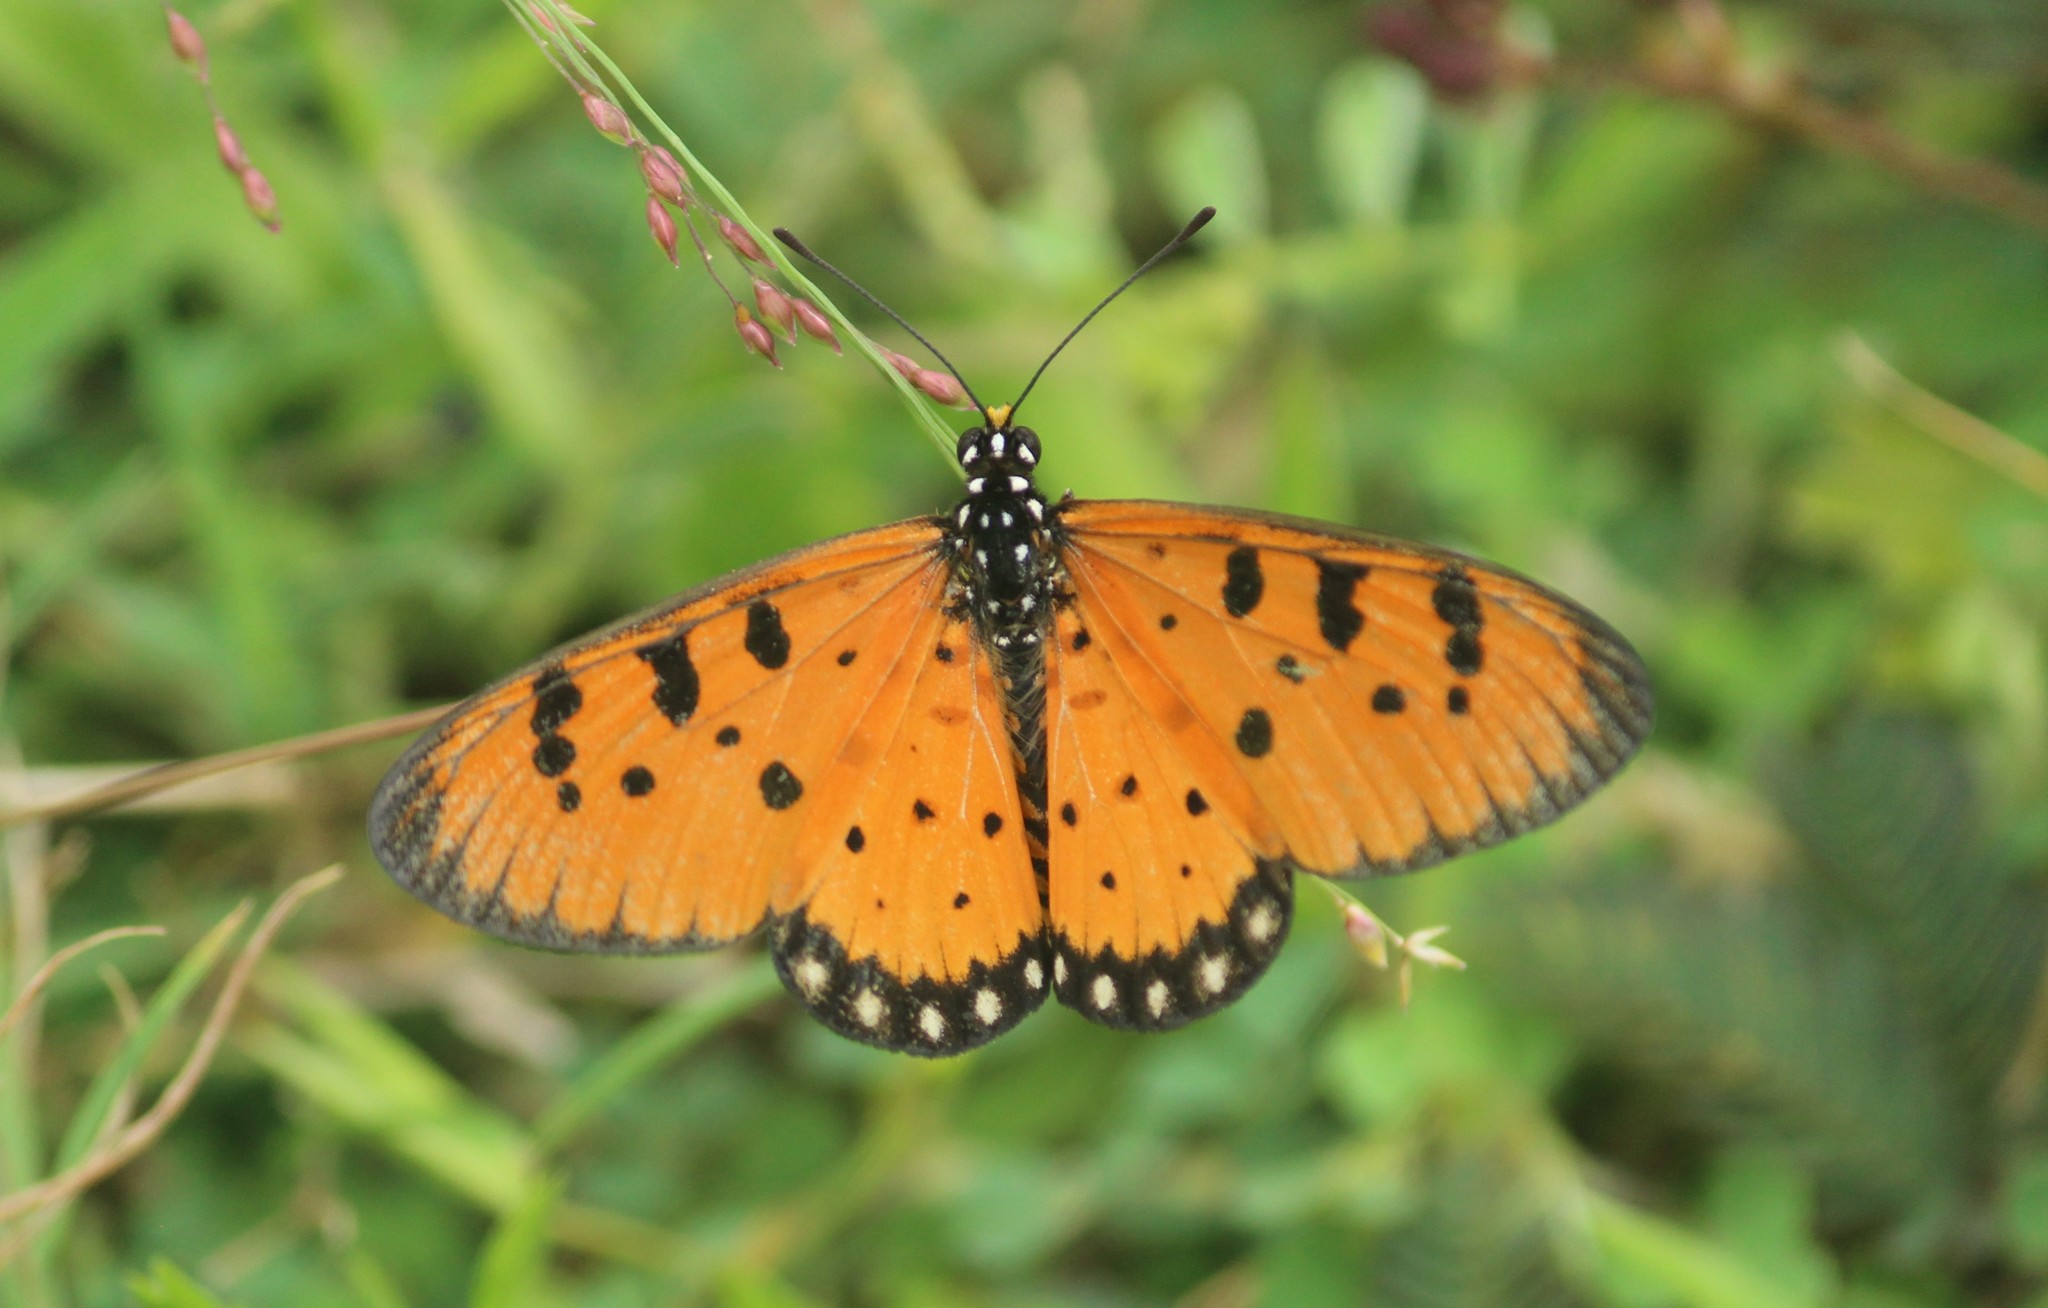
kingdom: Animalia
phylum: Arthropoda
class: Insecta
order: Lepidoptera
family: Nymphalidae
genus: Acraea
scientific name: Acraea terpsicore
